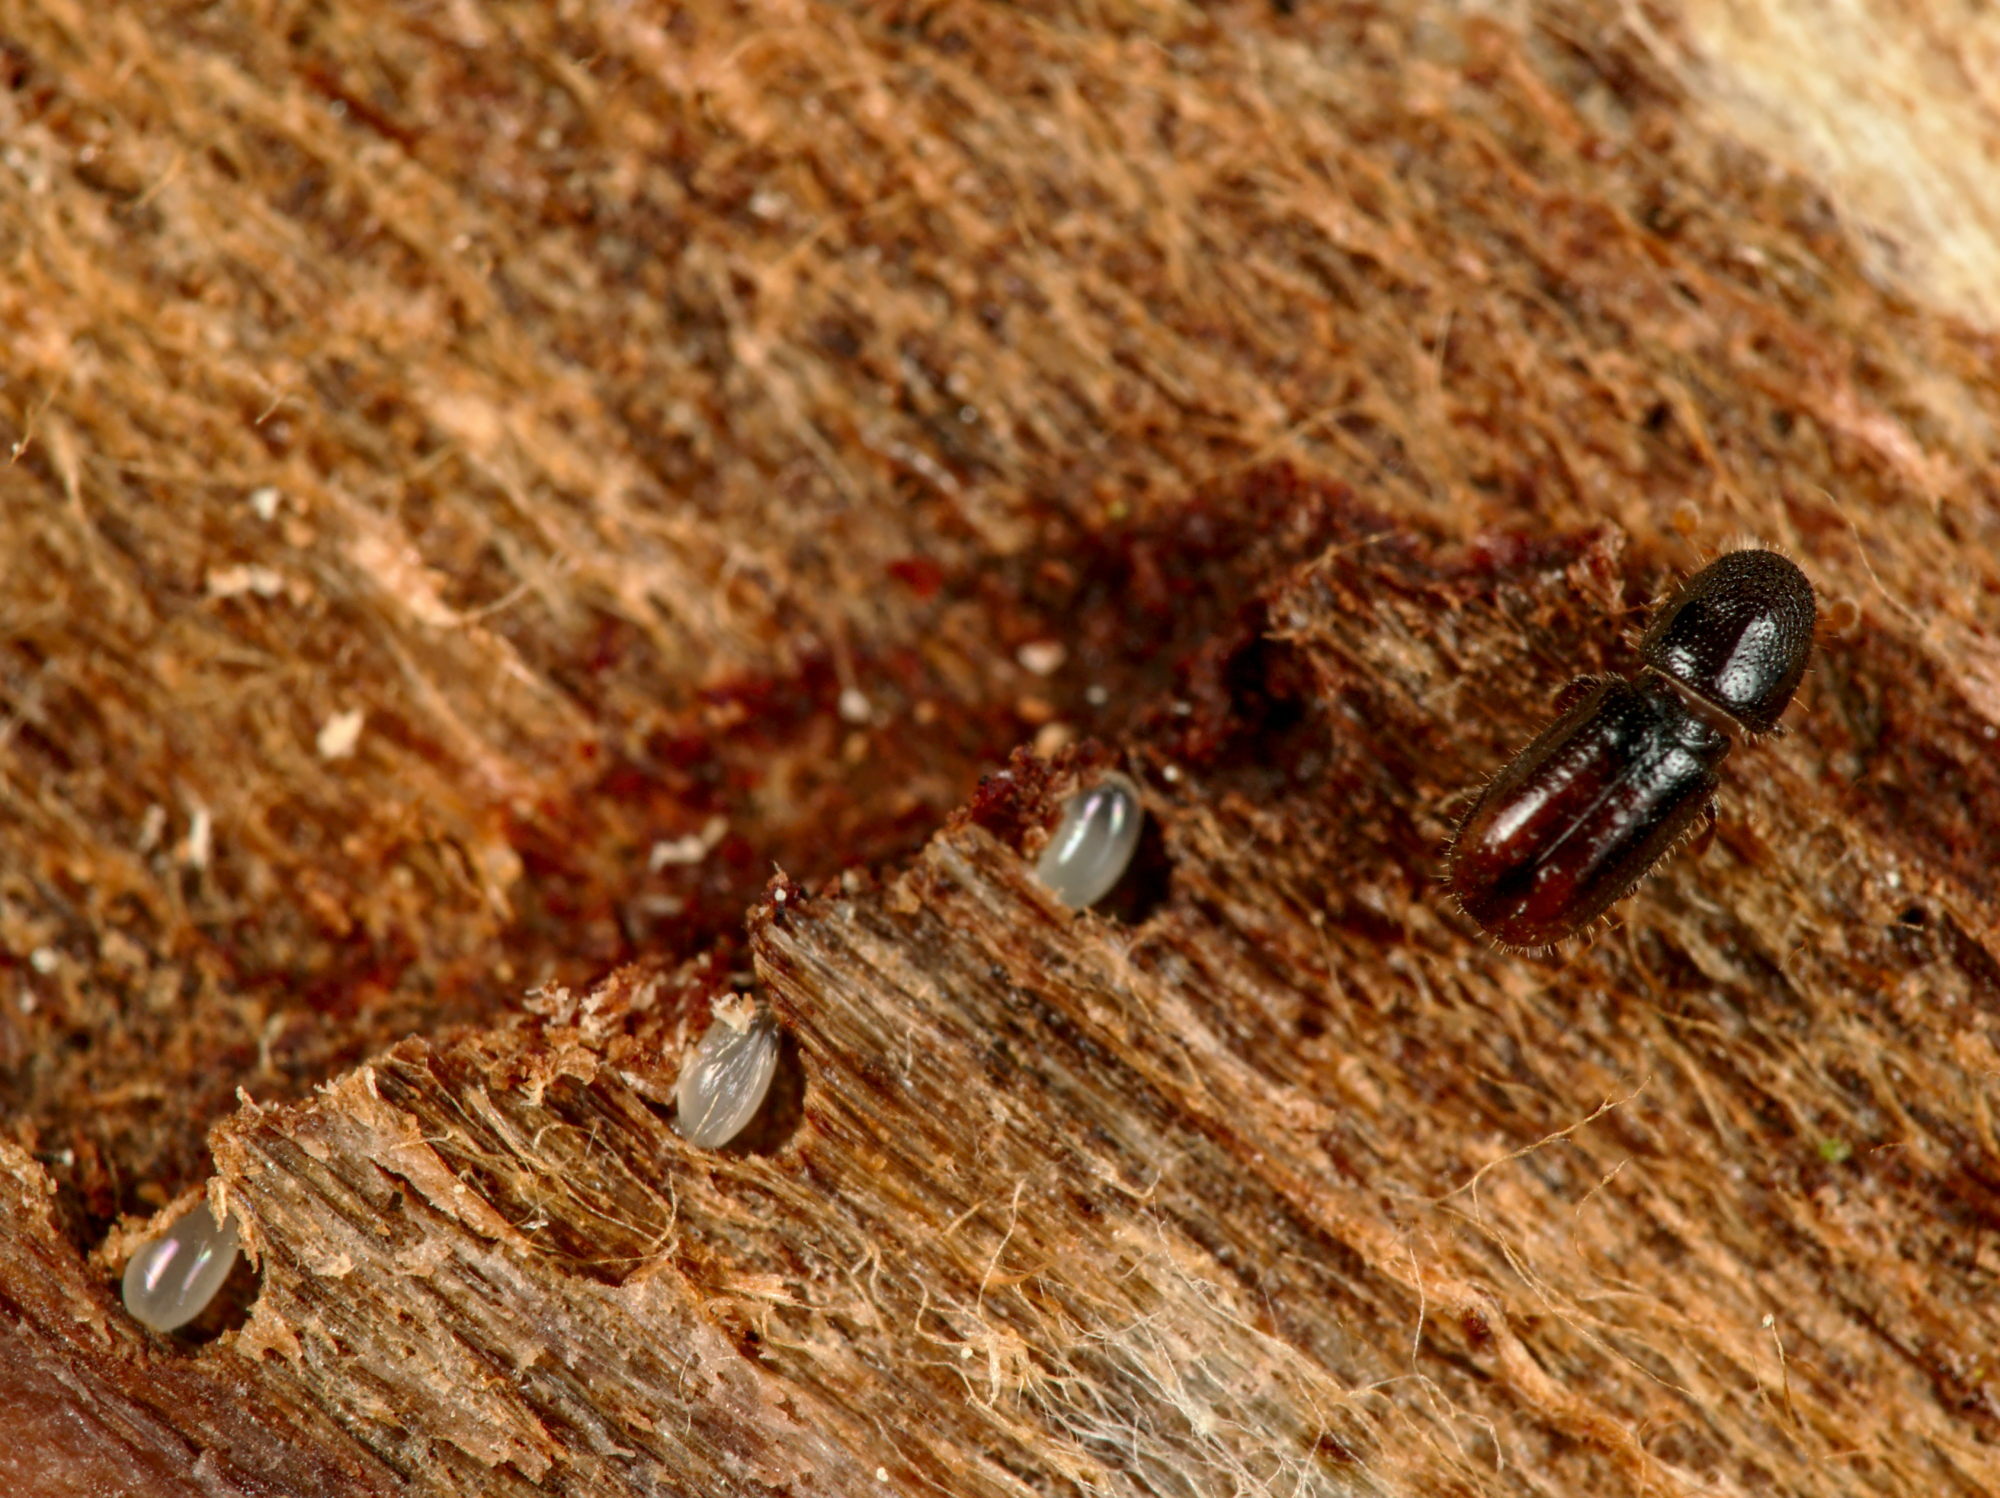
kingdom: Animalia
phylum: Arthropoda
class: Insecta
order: Coleoptera
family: Curculionidae
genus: Pityogenes
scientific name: Pityogenes chalcographus
